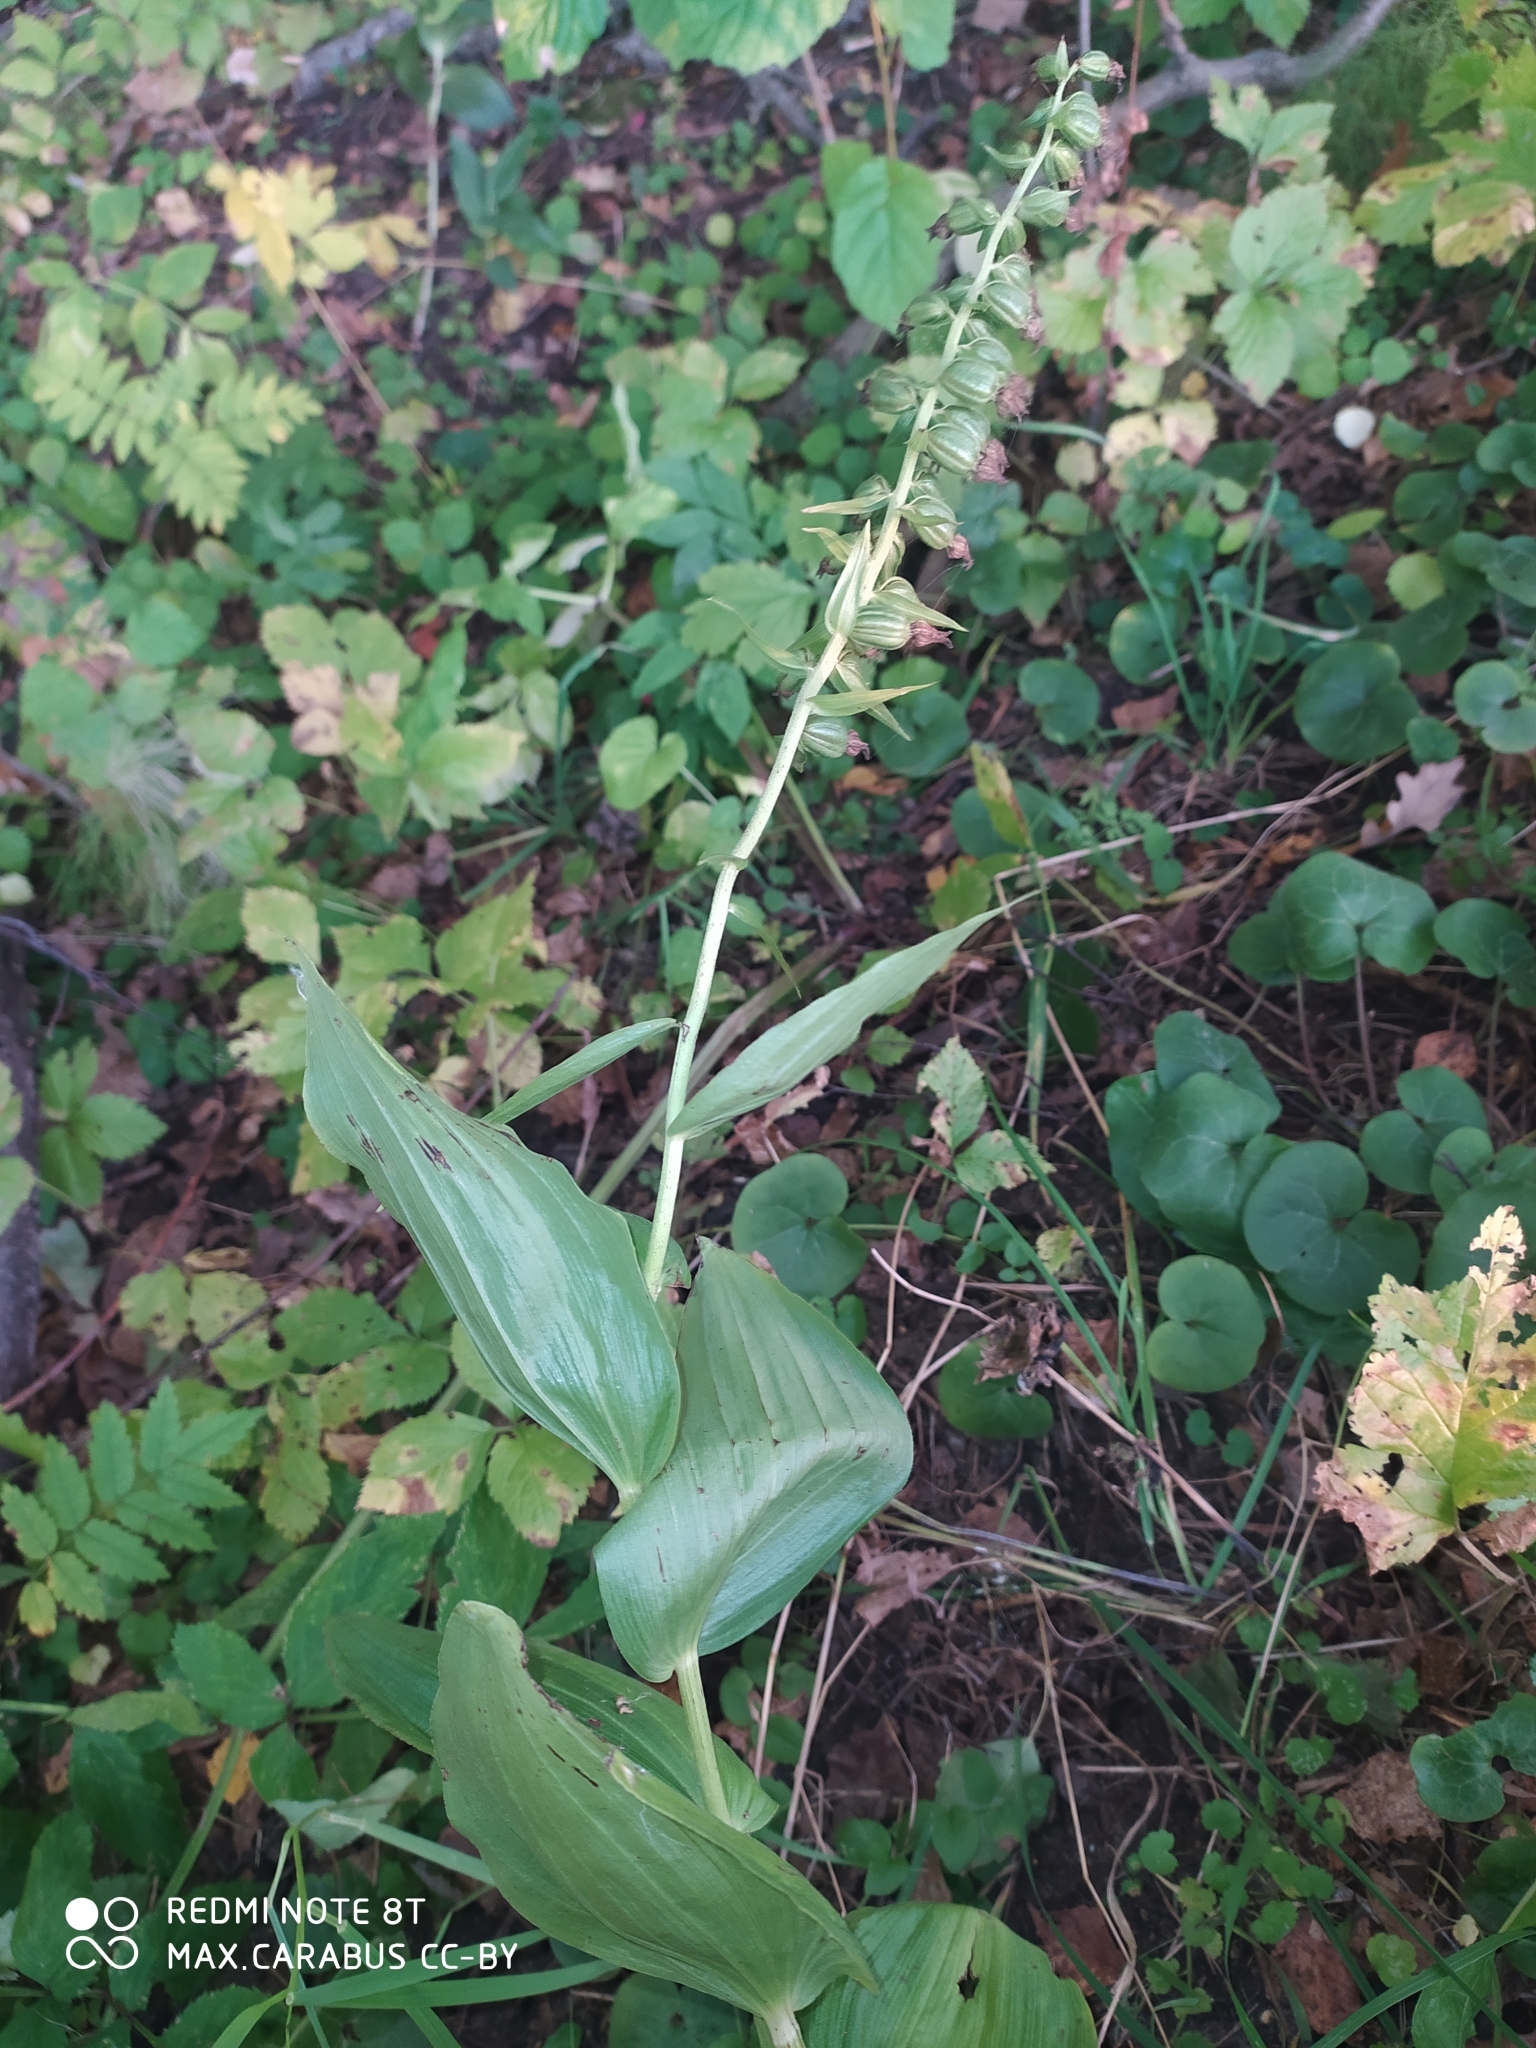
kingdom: Plantae
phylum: Tracheophyta
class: Liliopsida
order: Asparagales
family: Orchidaceae
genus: Epipactis
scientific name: Epipactis helleborine
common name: Broad-leaved helleborine
